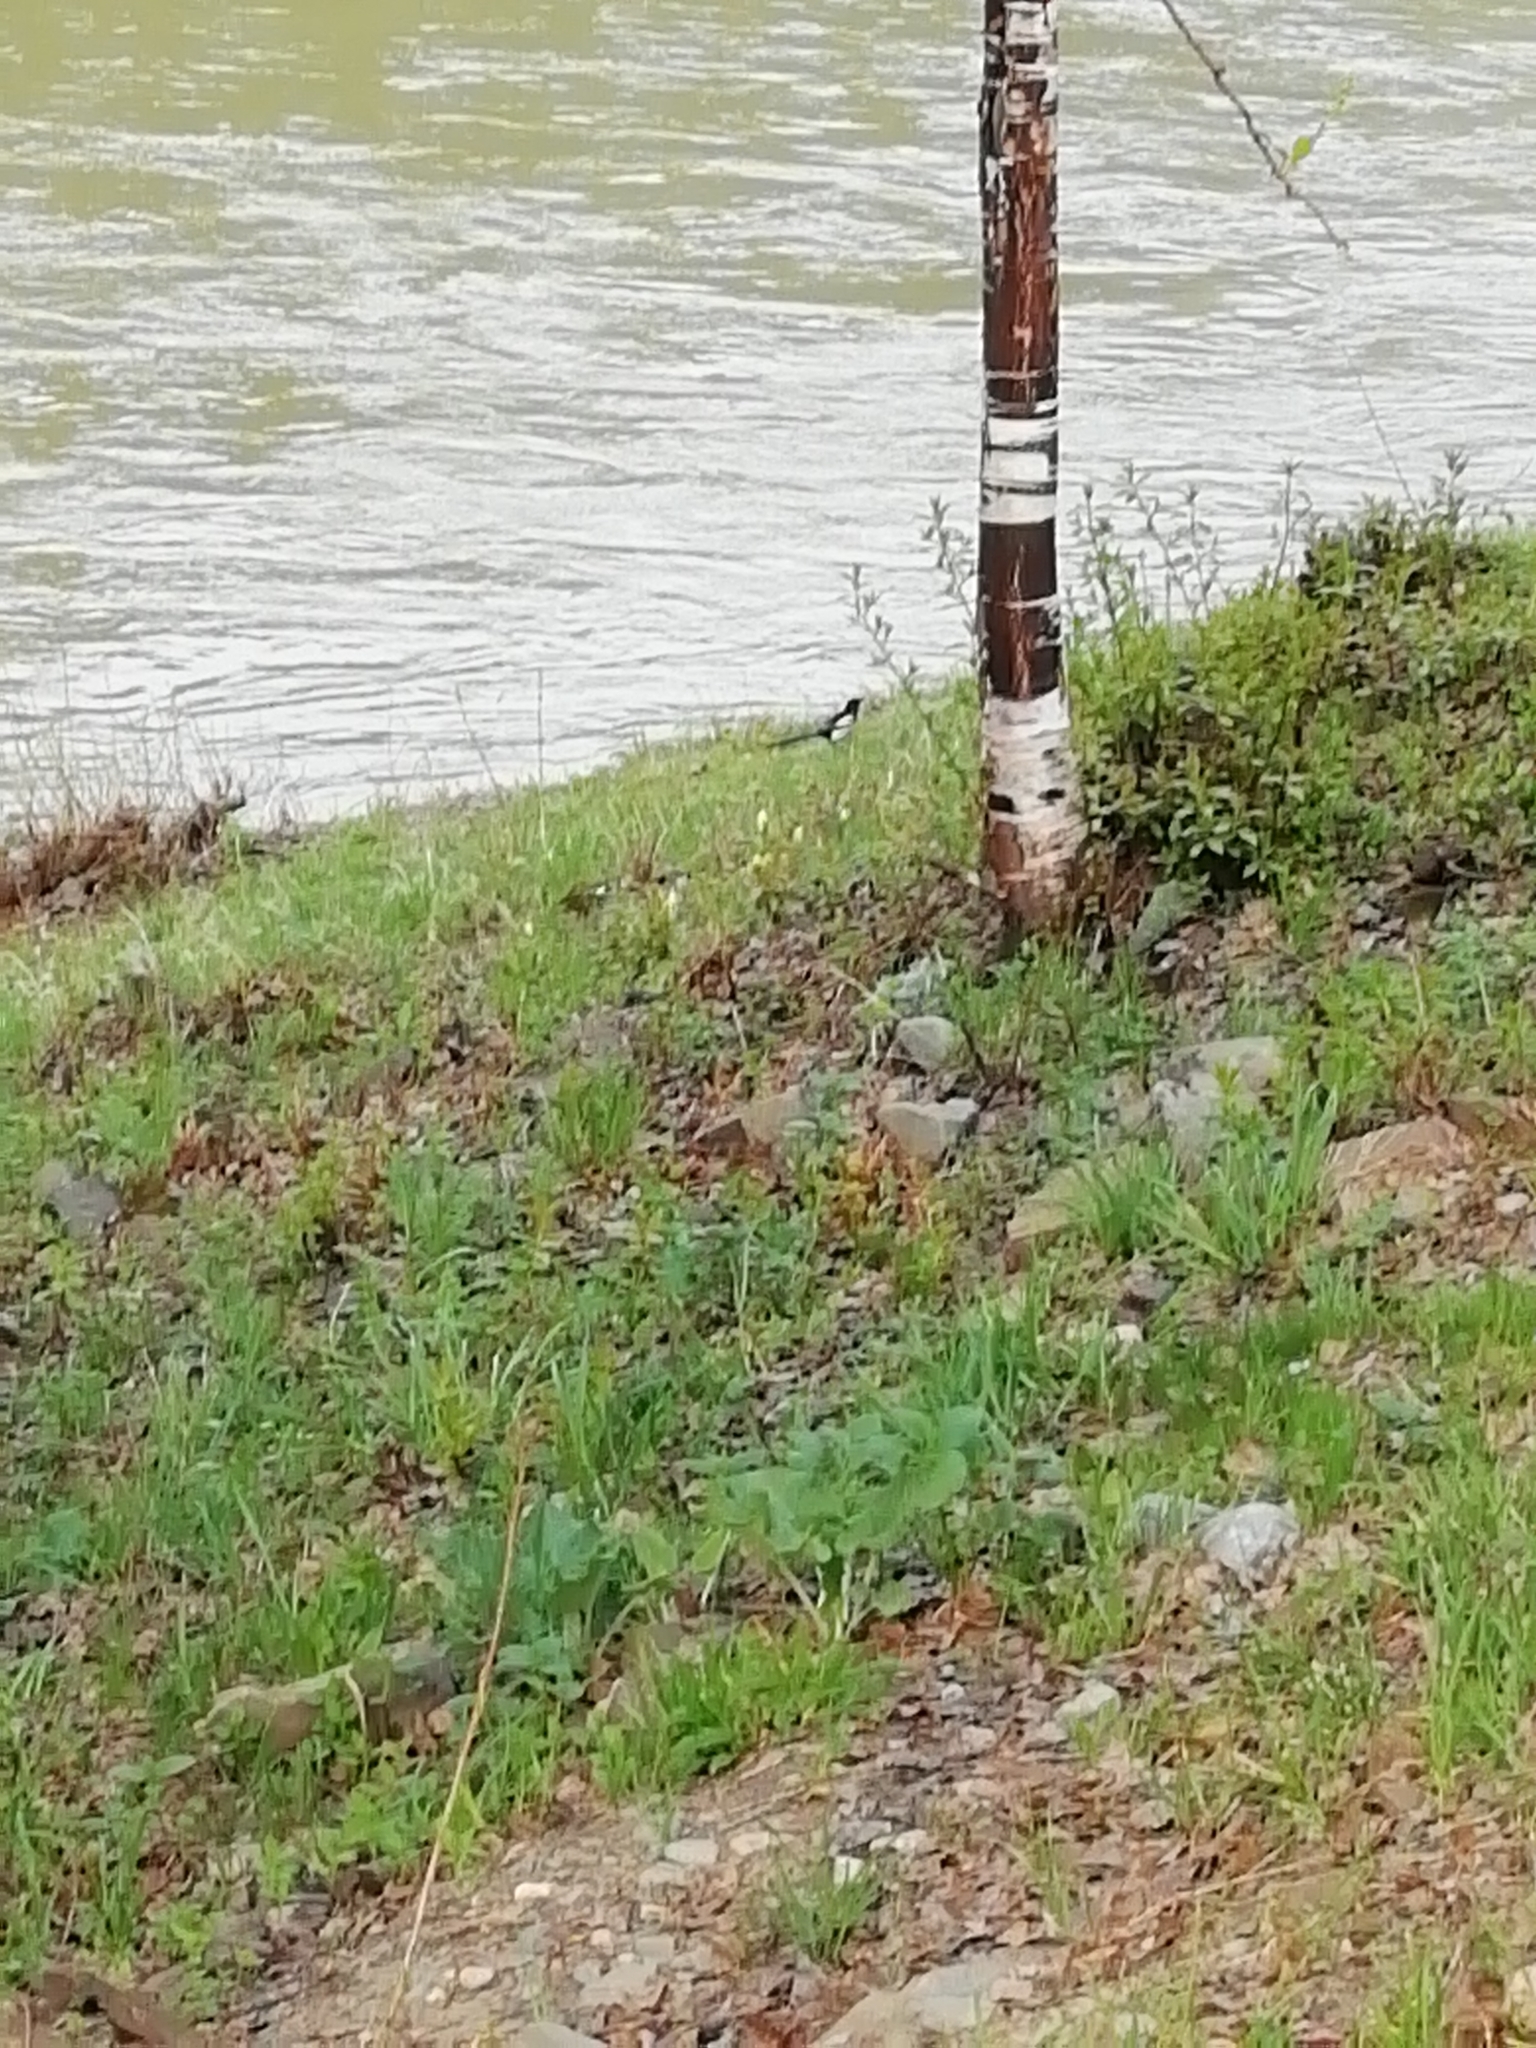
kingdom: Animalia
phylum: Chordata
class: Aves
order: Passeriformes
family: Corvidae
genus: Pica
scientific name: Pica pica
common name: Eurasian magpie
